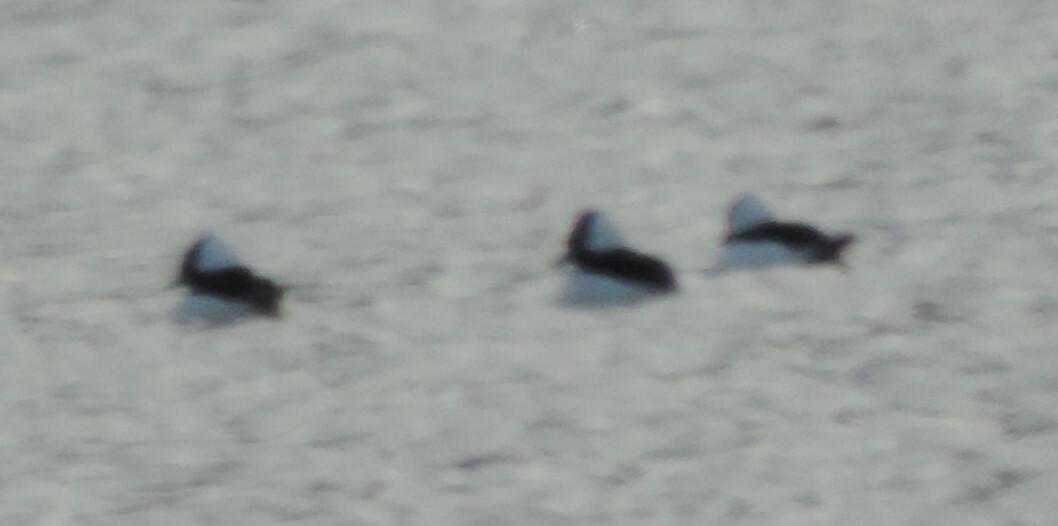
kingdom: Animalia
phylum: Chordata
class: Aves
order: Anseriformes
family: Anatidae
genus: Bucephala
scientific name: Bucephala albeola
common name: Bufflehead
